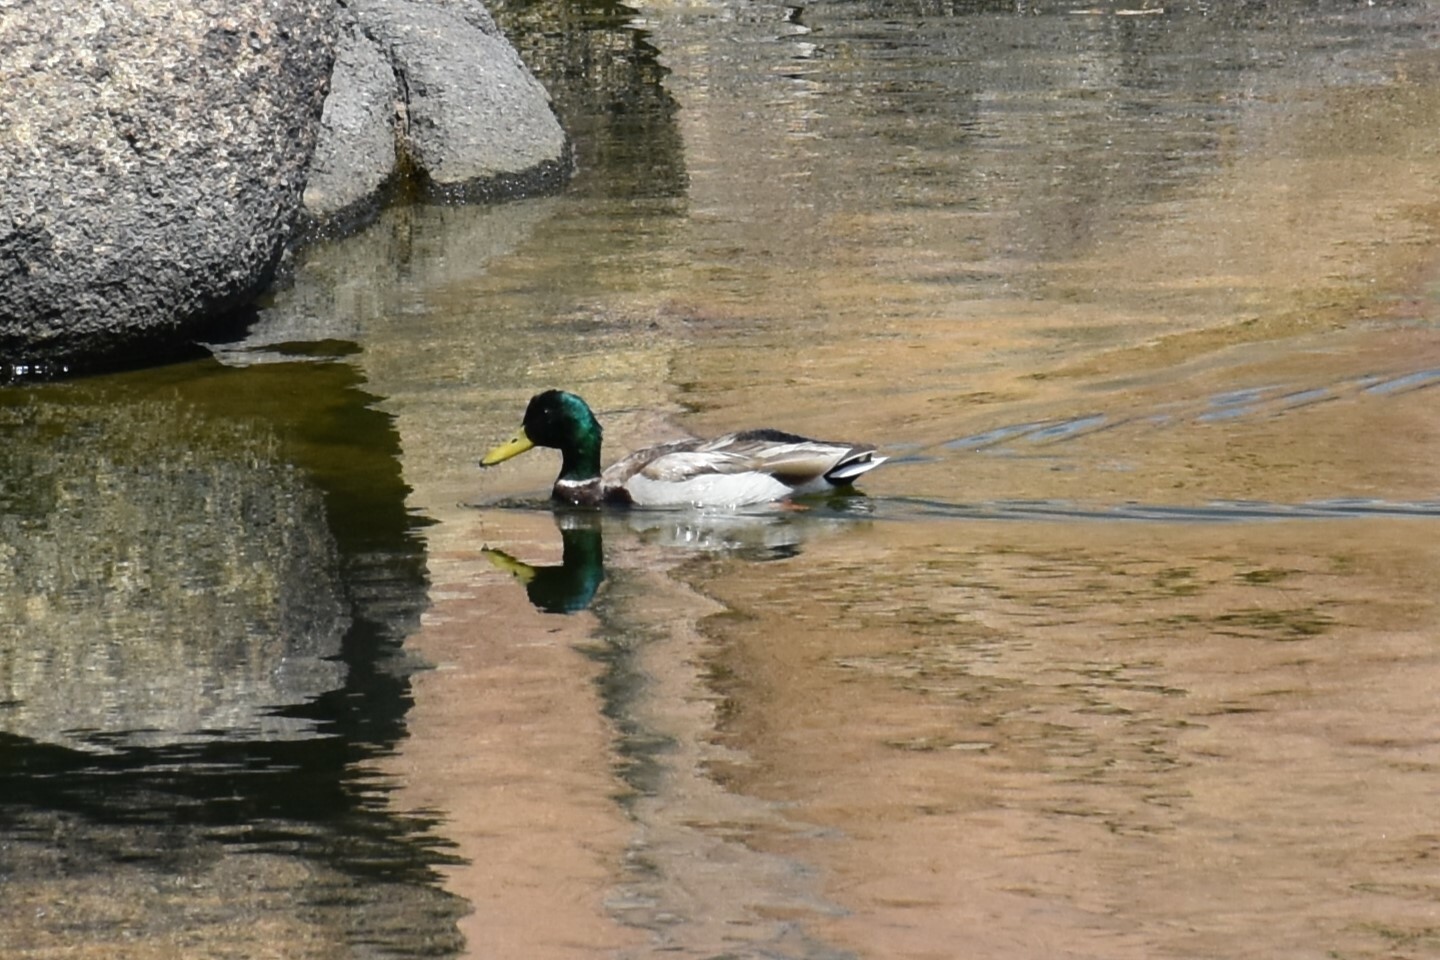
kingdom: Animalia
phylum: Chordata
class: Aves
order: Anseriformes
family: Anatidae
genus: Anas
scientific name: Anas platyrhynchos
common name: Mallard
